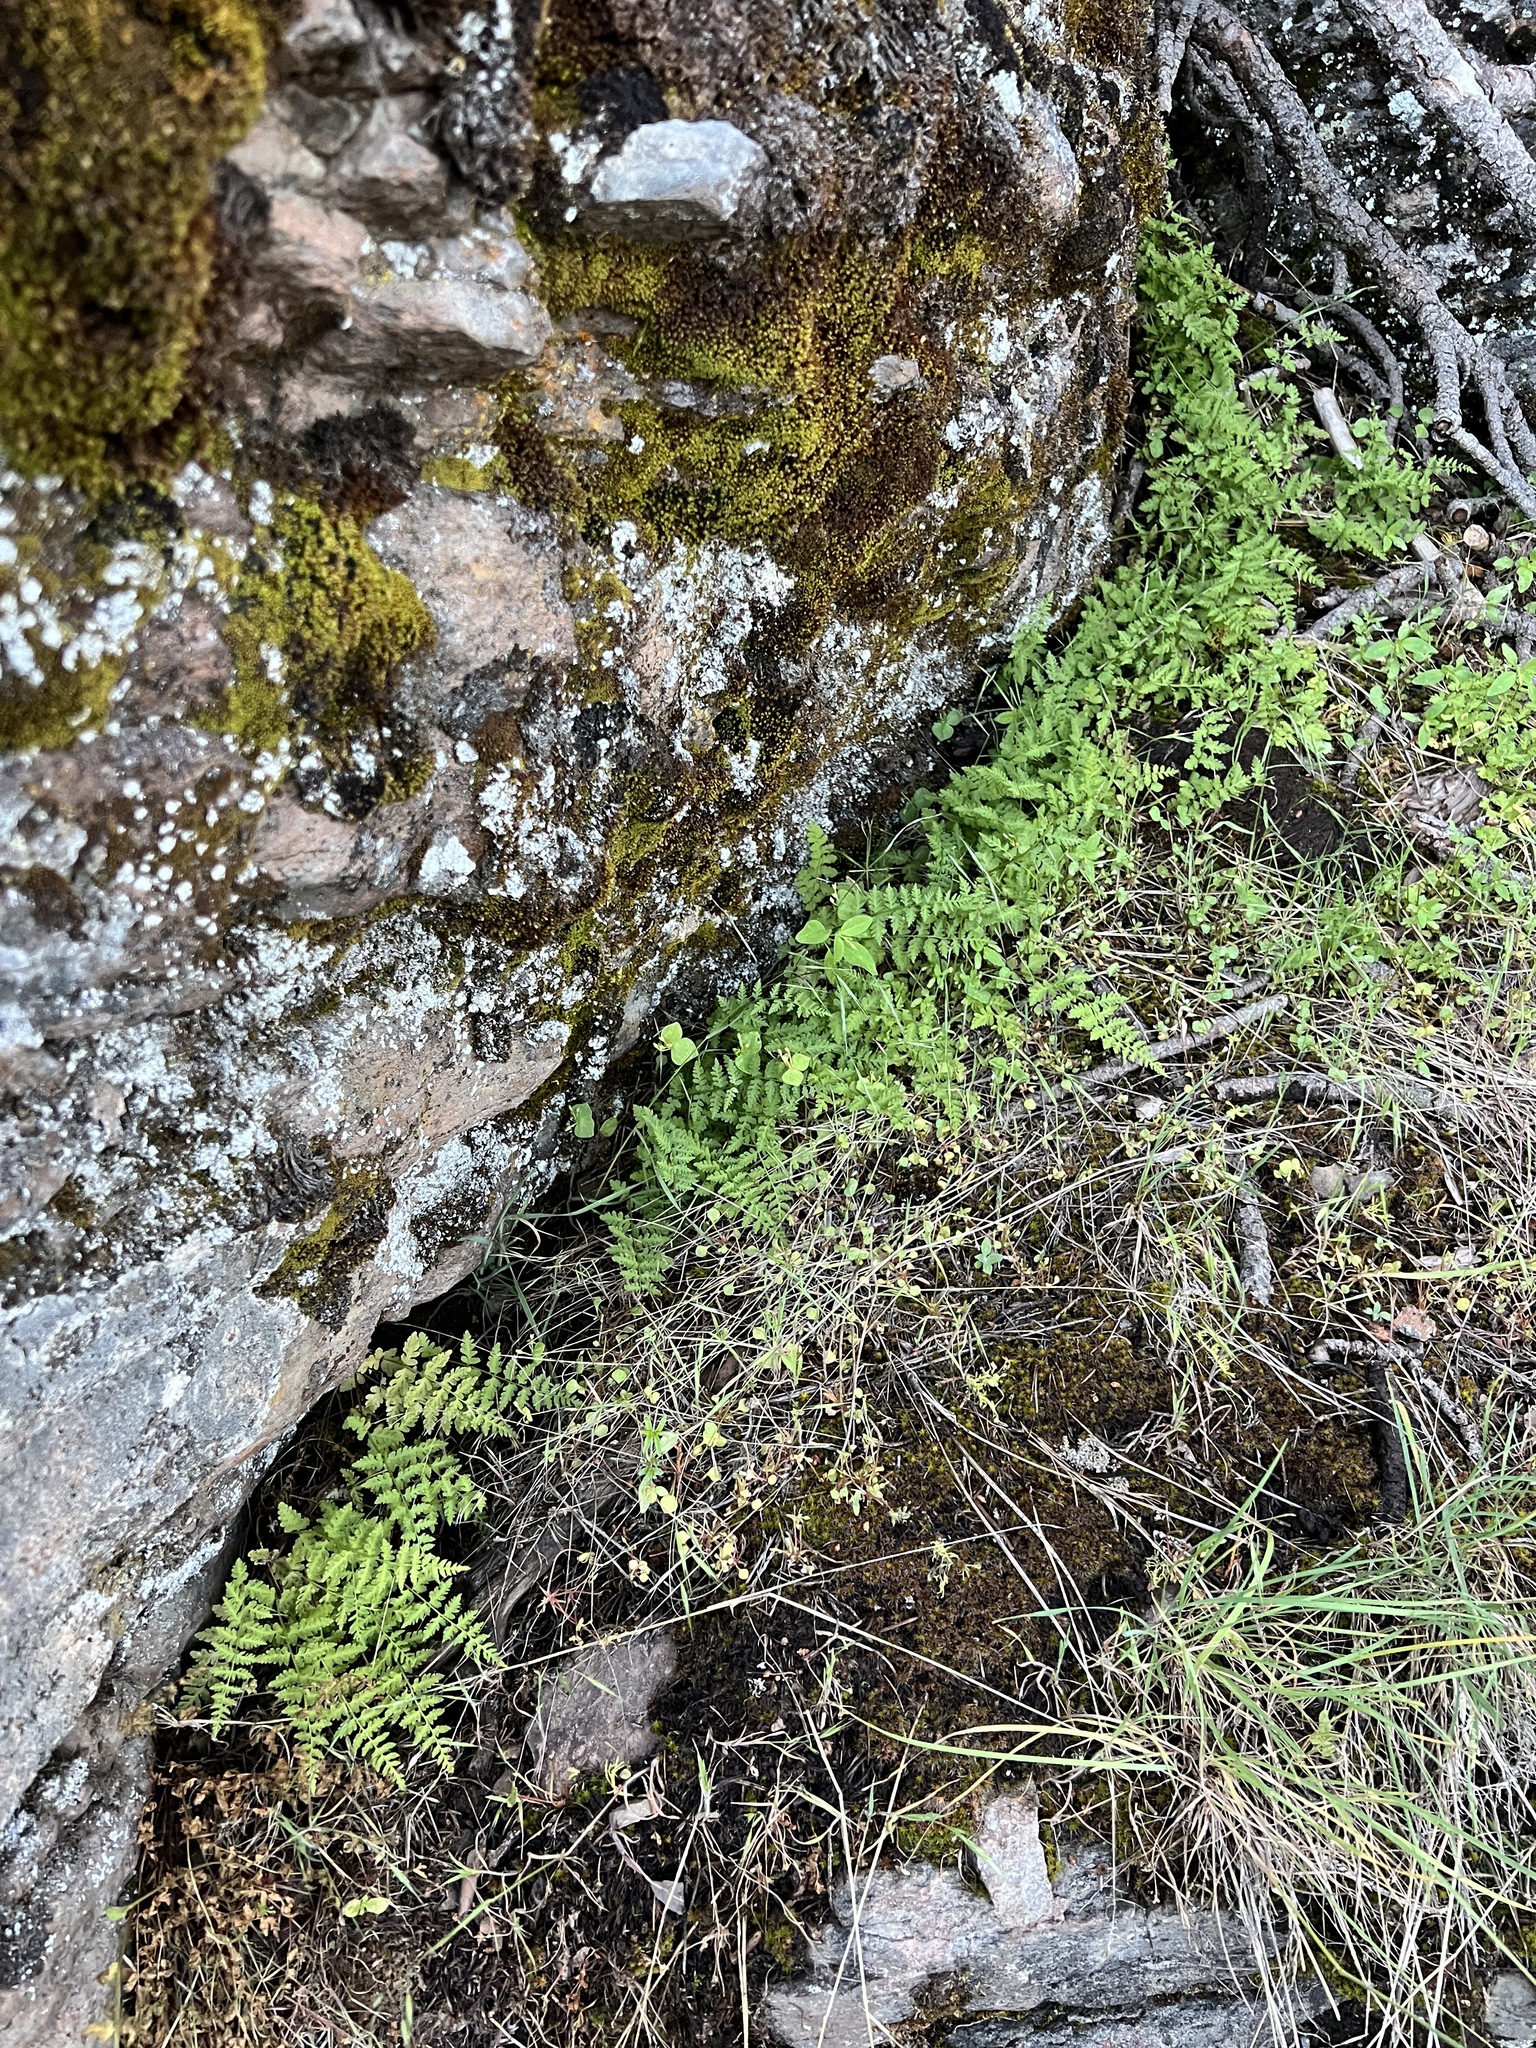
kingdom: Plantae
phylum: Tracheophyta
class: Polypodiopsida
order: Polypodiales
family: Cystopteridaceae
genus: Cystopteris
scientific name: Cystopteris fragilis
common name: Brittle bladder fern
